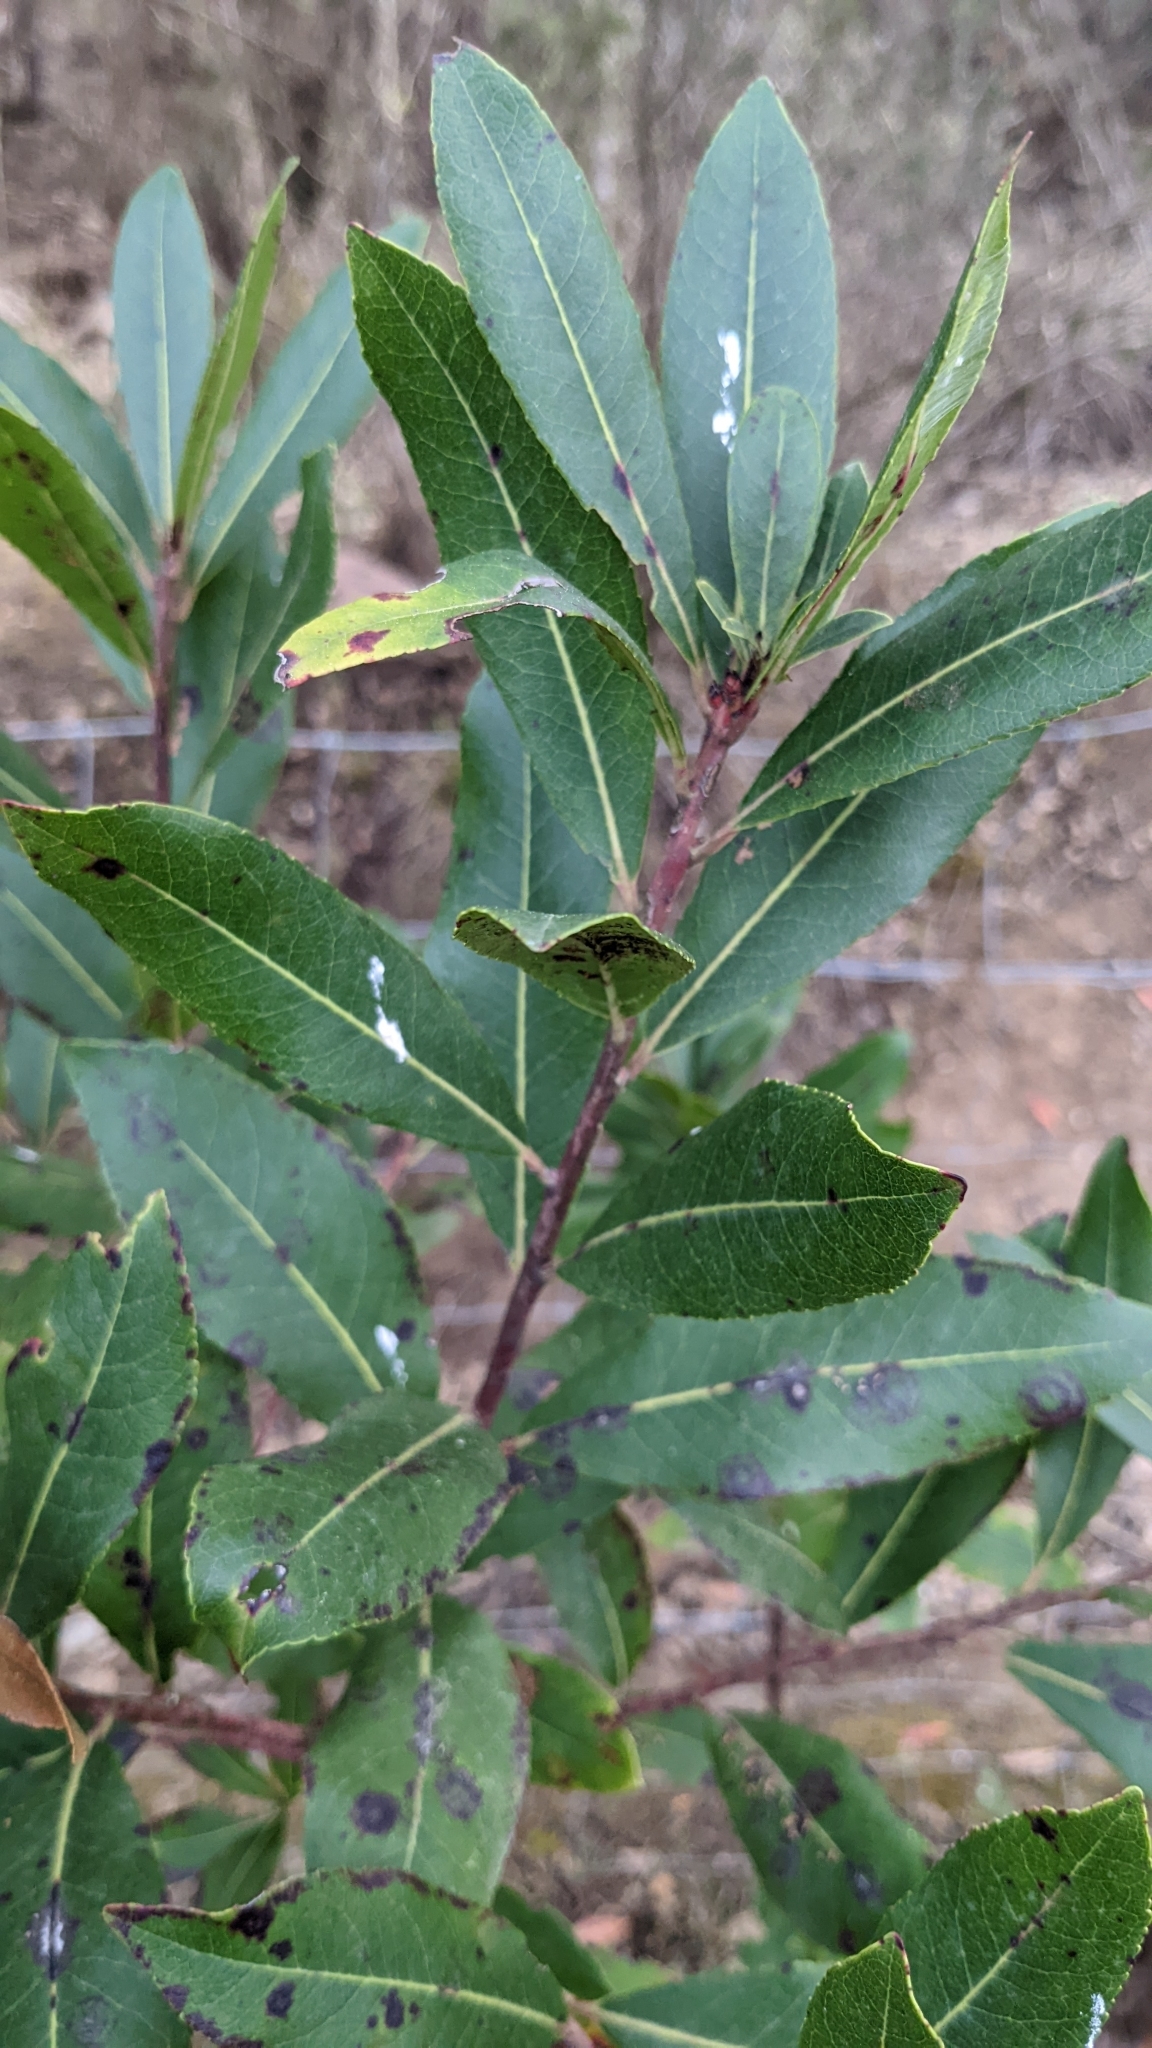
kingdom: Plantae
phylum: Tracheophyta
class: Magnoliopsida
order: Ericales
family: Ericaceae
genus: Arbutus
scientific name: Arbutus unedo
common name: Strawberry-tree
